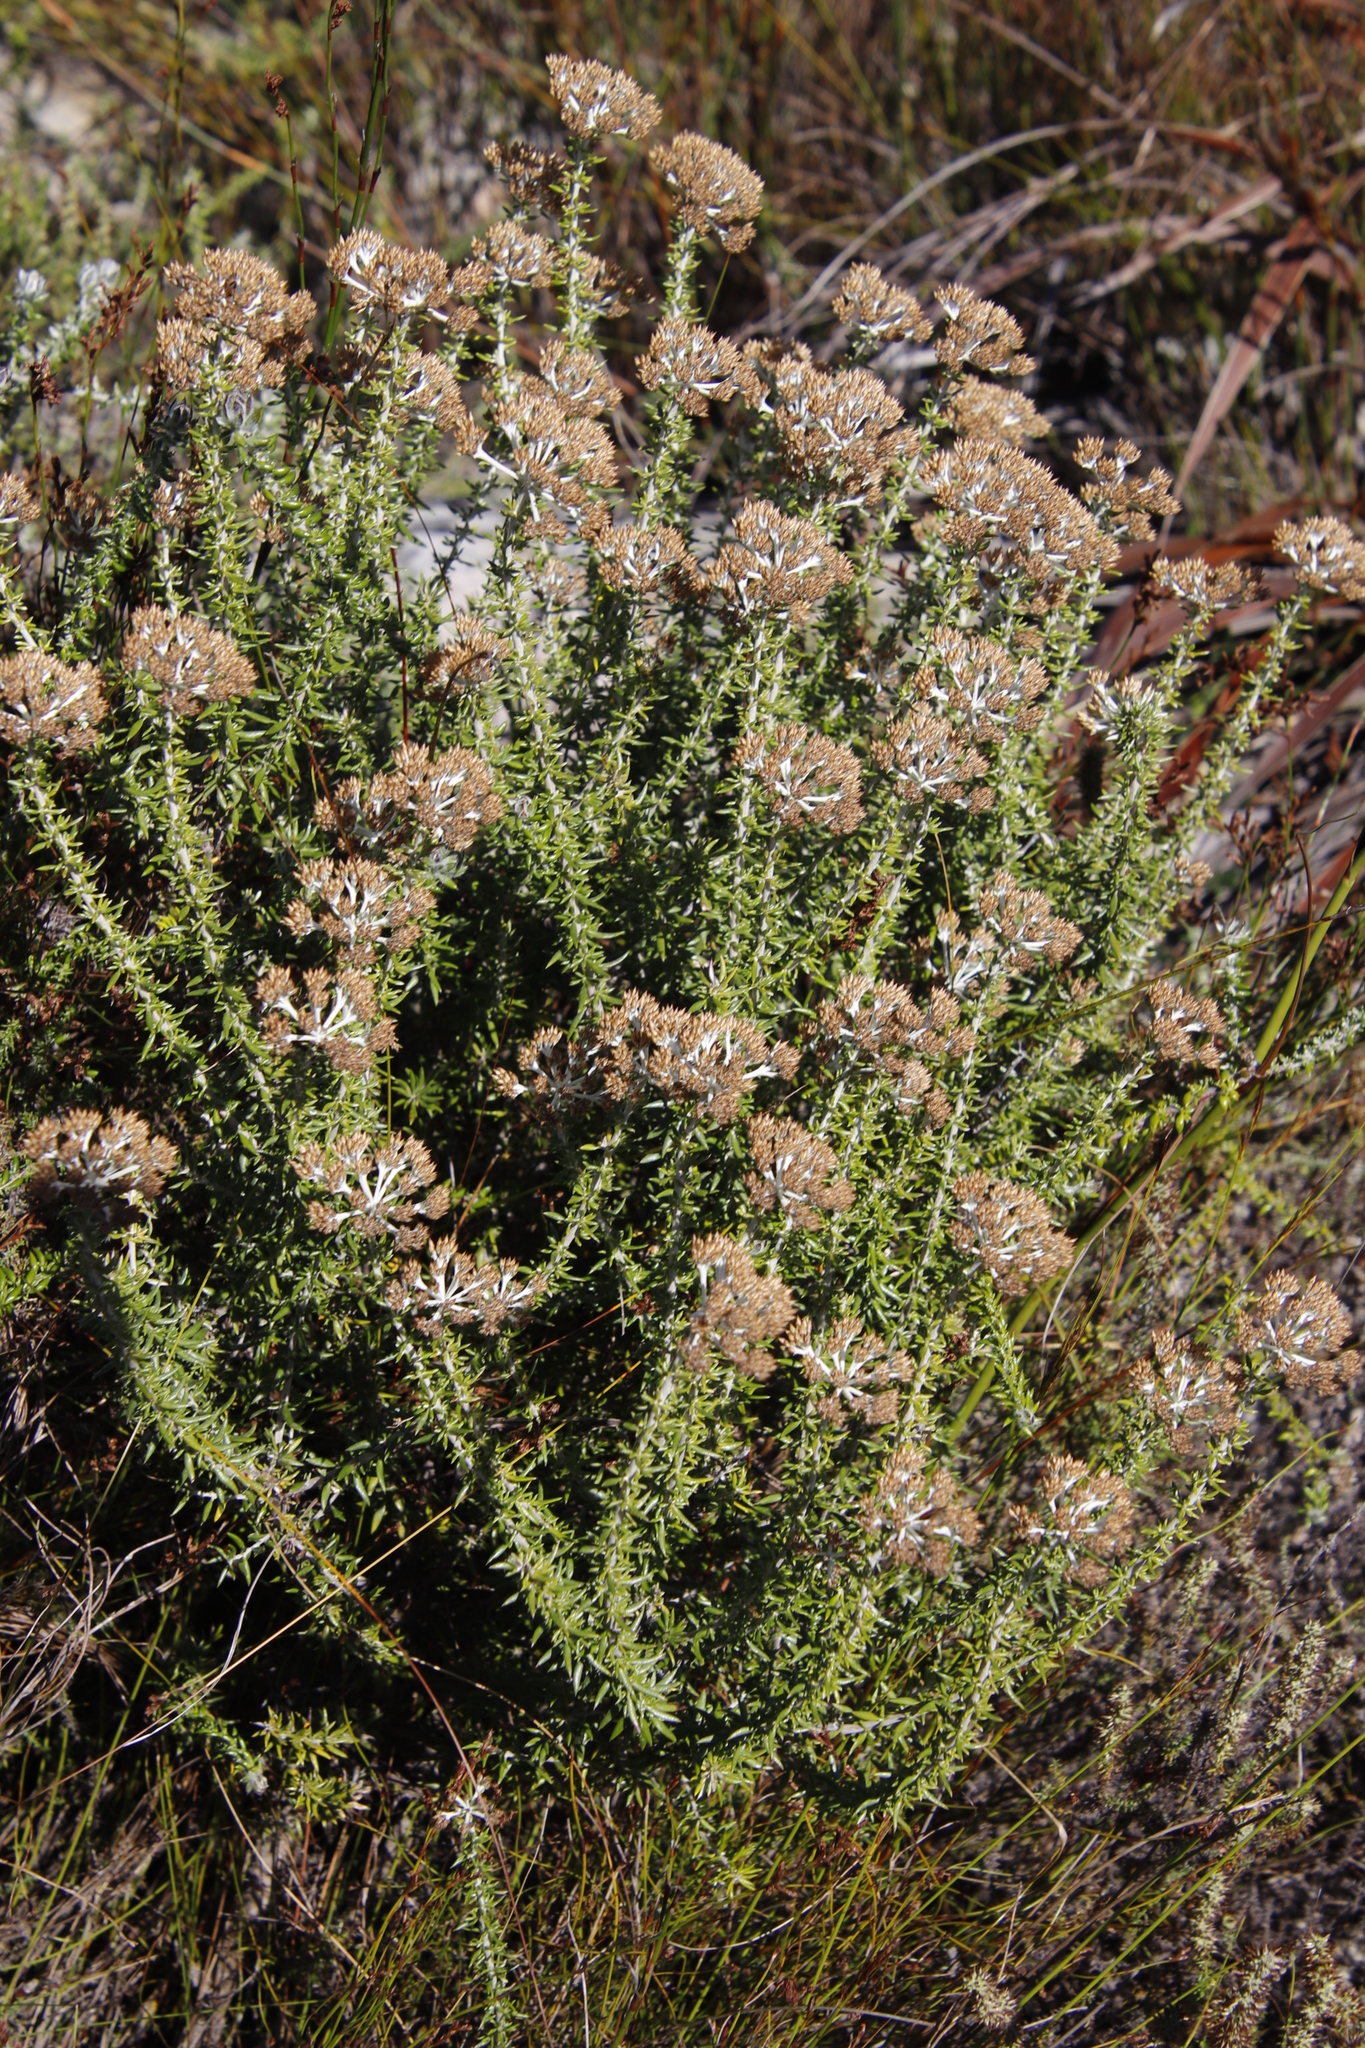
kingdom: Plantae
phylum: Tracheophyta
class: Magnoliopsida
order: Asterales
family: Asteraceae
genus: Metalasia
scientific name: Metalasia densa
